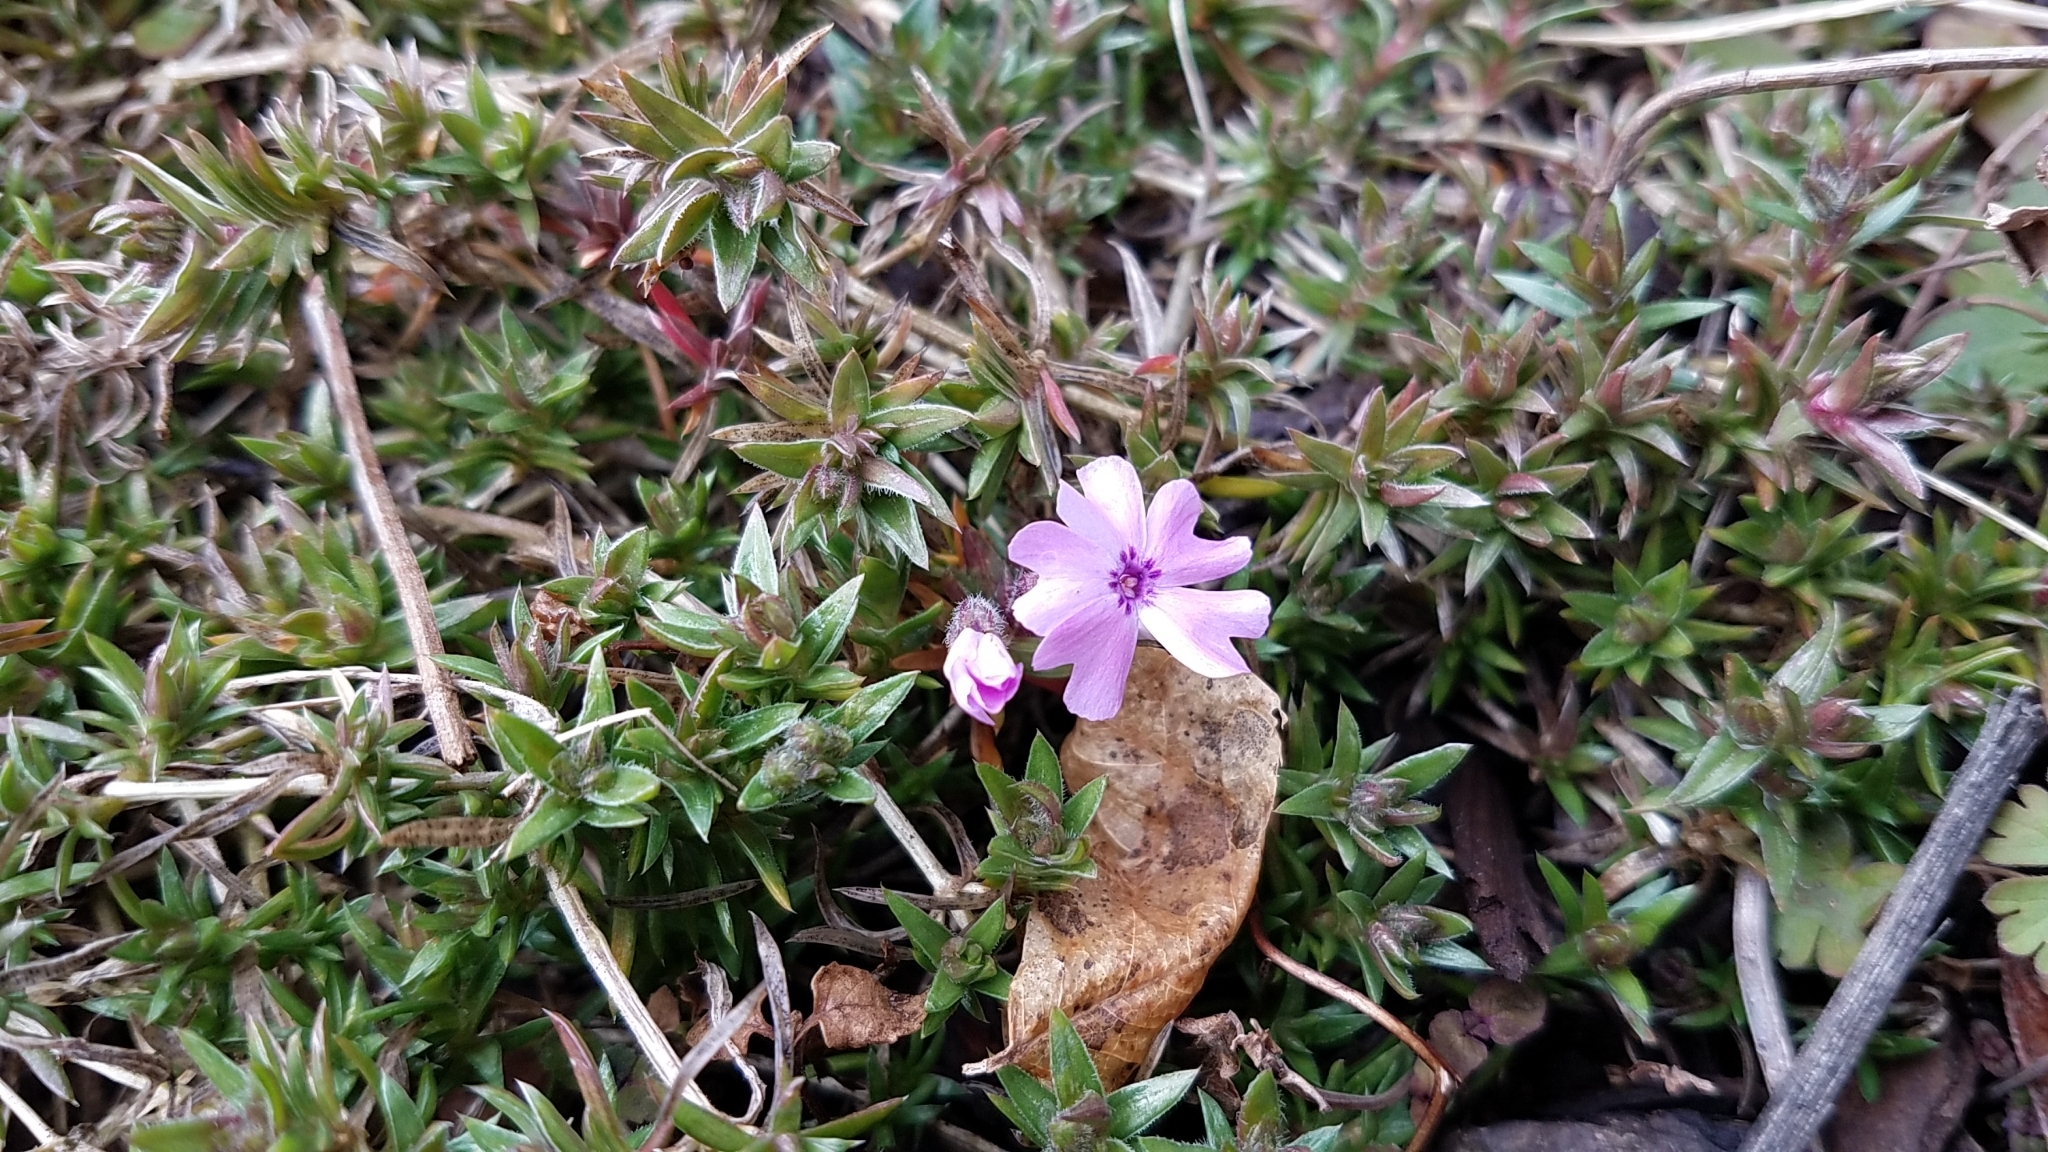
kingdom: Plantae
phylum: Tracheophyta
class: Magnoliopsida
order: Ericales
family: Polemoniaceae
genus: Phlox
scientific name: Phlox subulata
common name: Moss phlox
